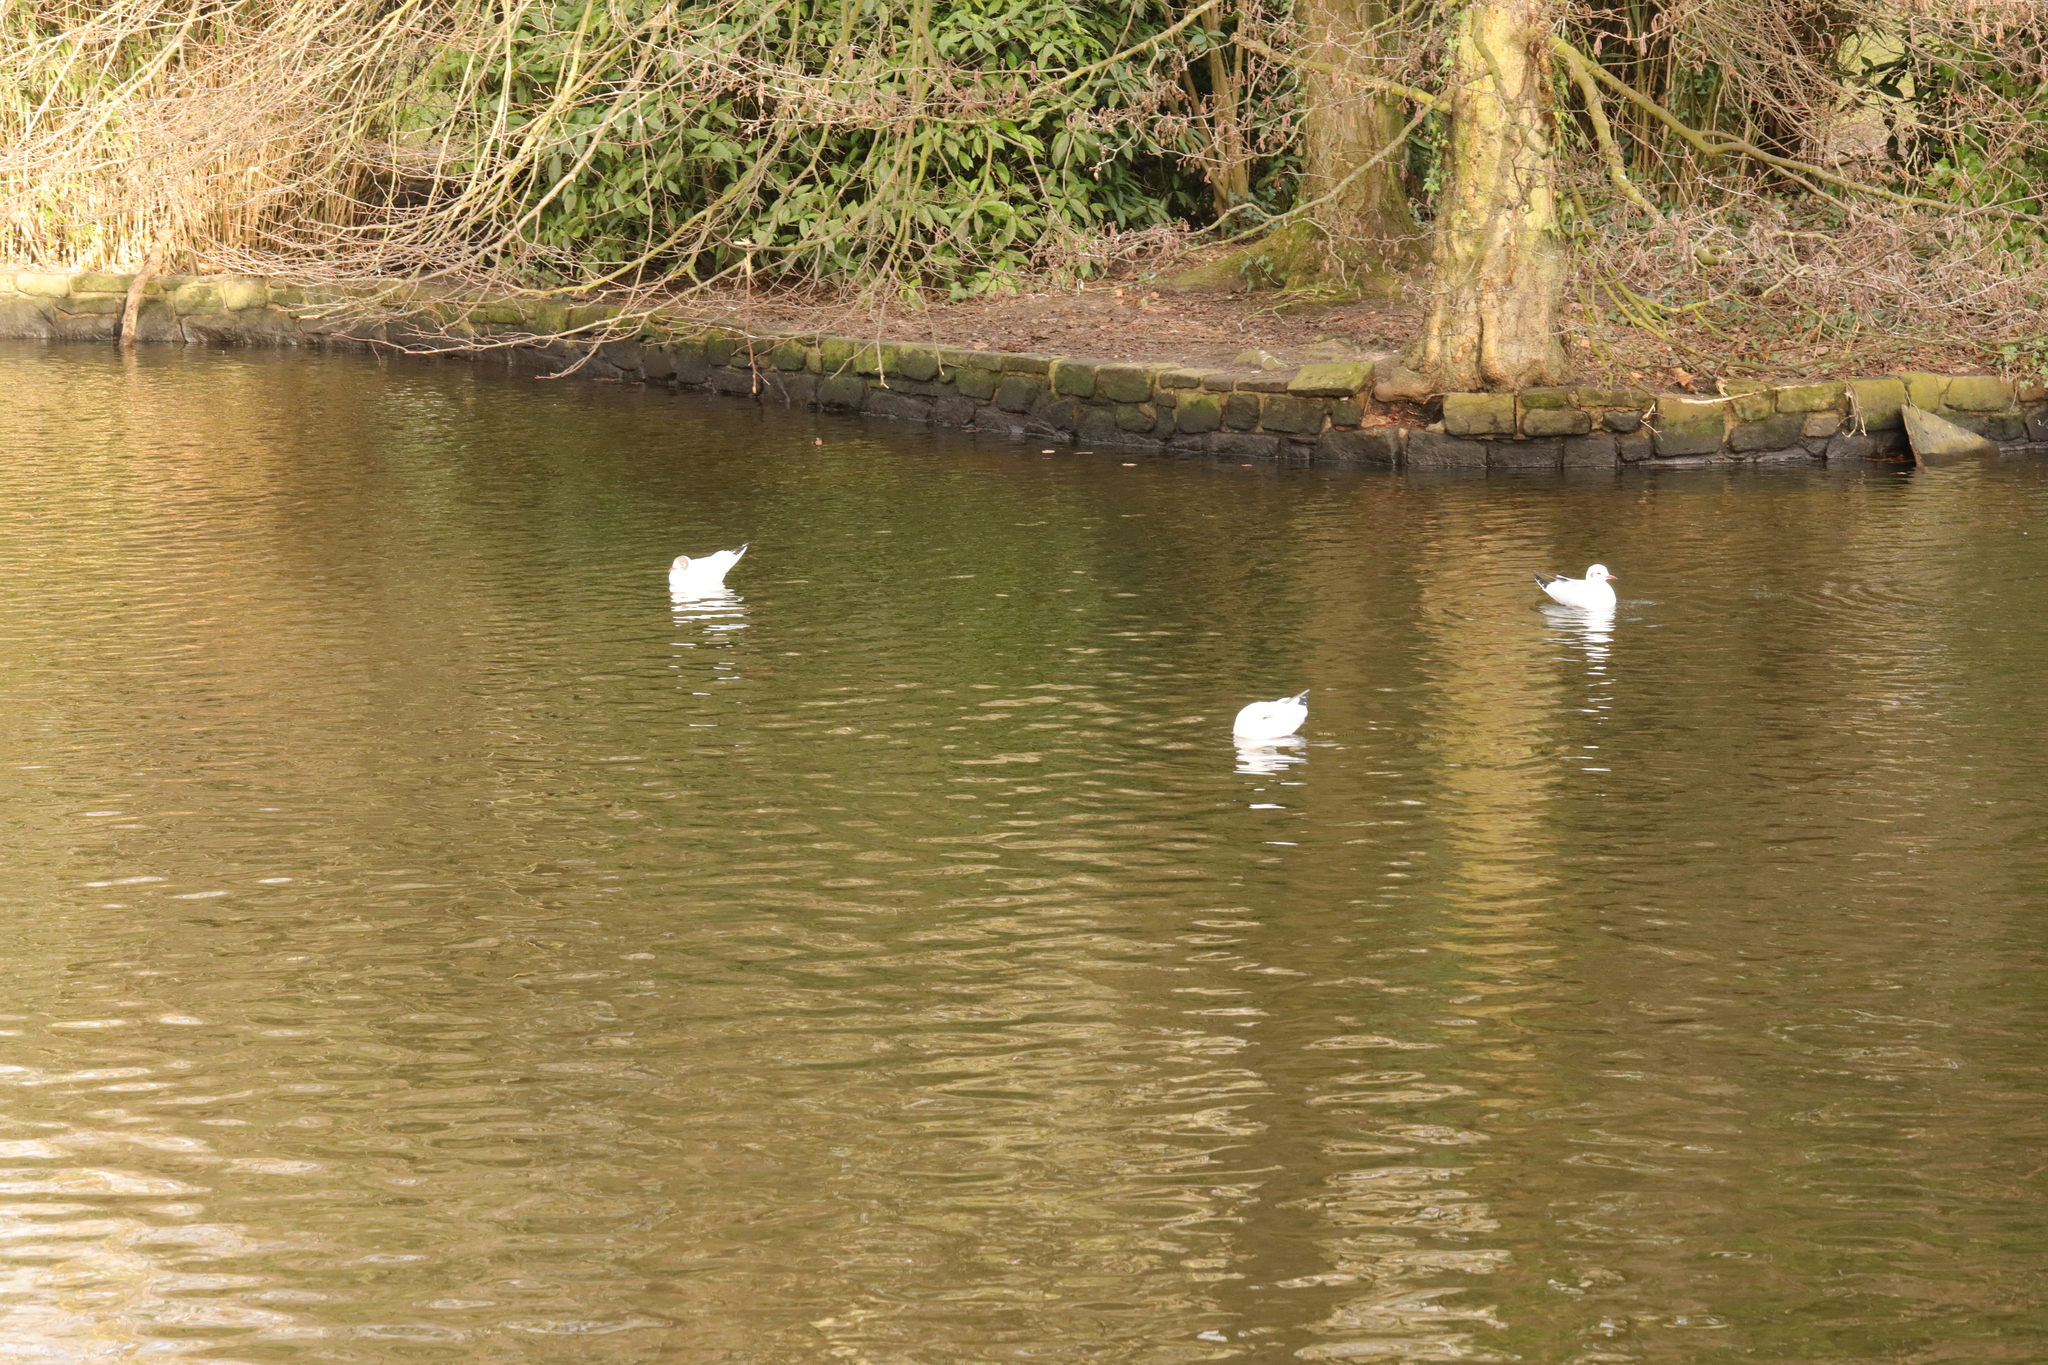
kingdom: Animalia
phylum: Chordata
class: Aves
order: Charadriiformes
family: Laridae
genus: Chroicocephalus
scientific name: Chroicocephalus ridibundus
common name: Black-headed gull
